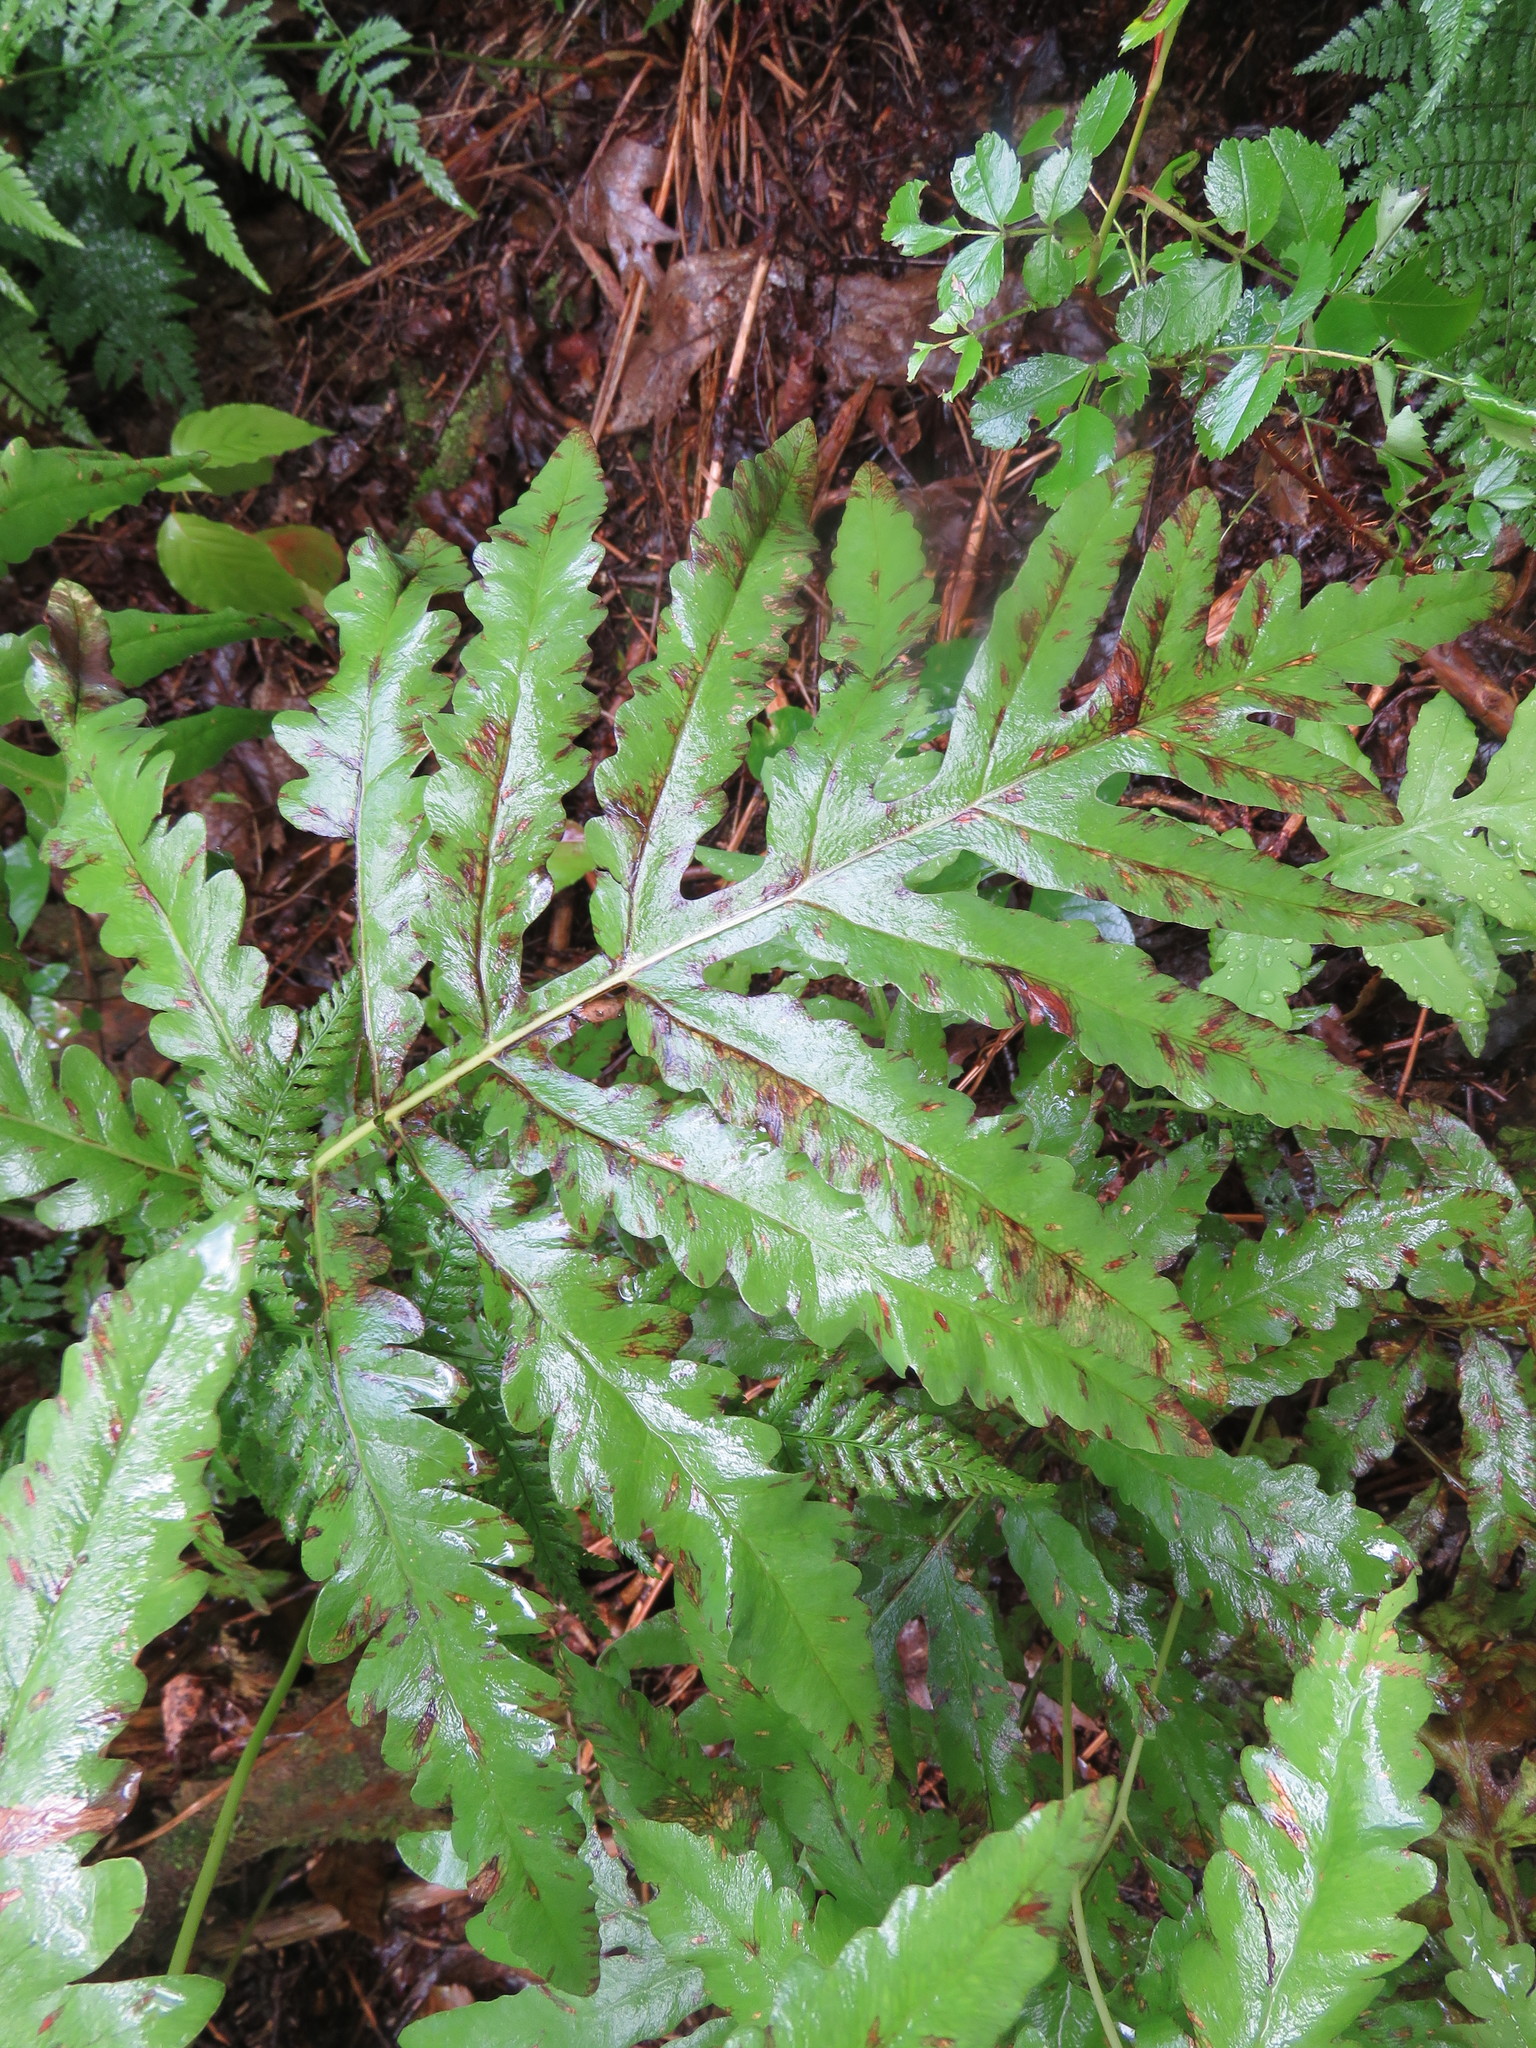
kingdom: Plantae
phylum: Tracheophyta
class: Polypodiopsida
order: Polypodiales
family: Onocleaceae
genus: Onoclea
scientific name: Onoclea sensibilis
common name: Sensitive fern
